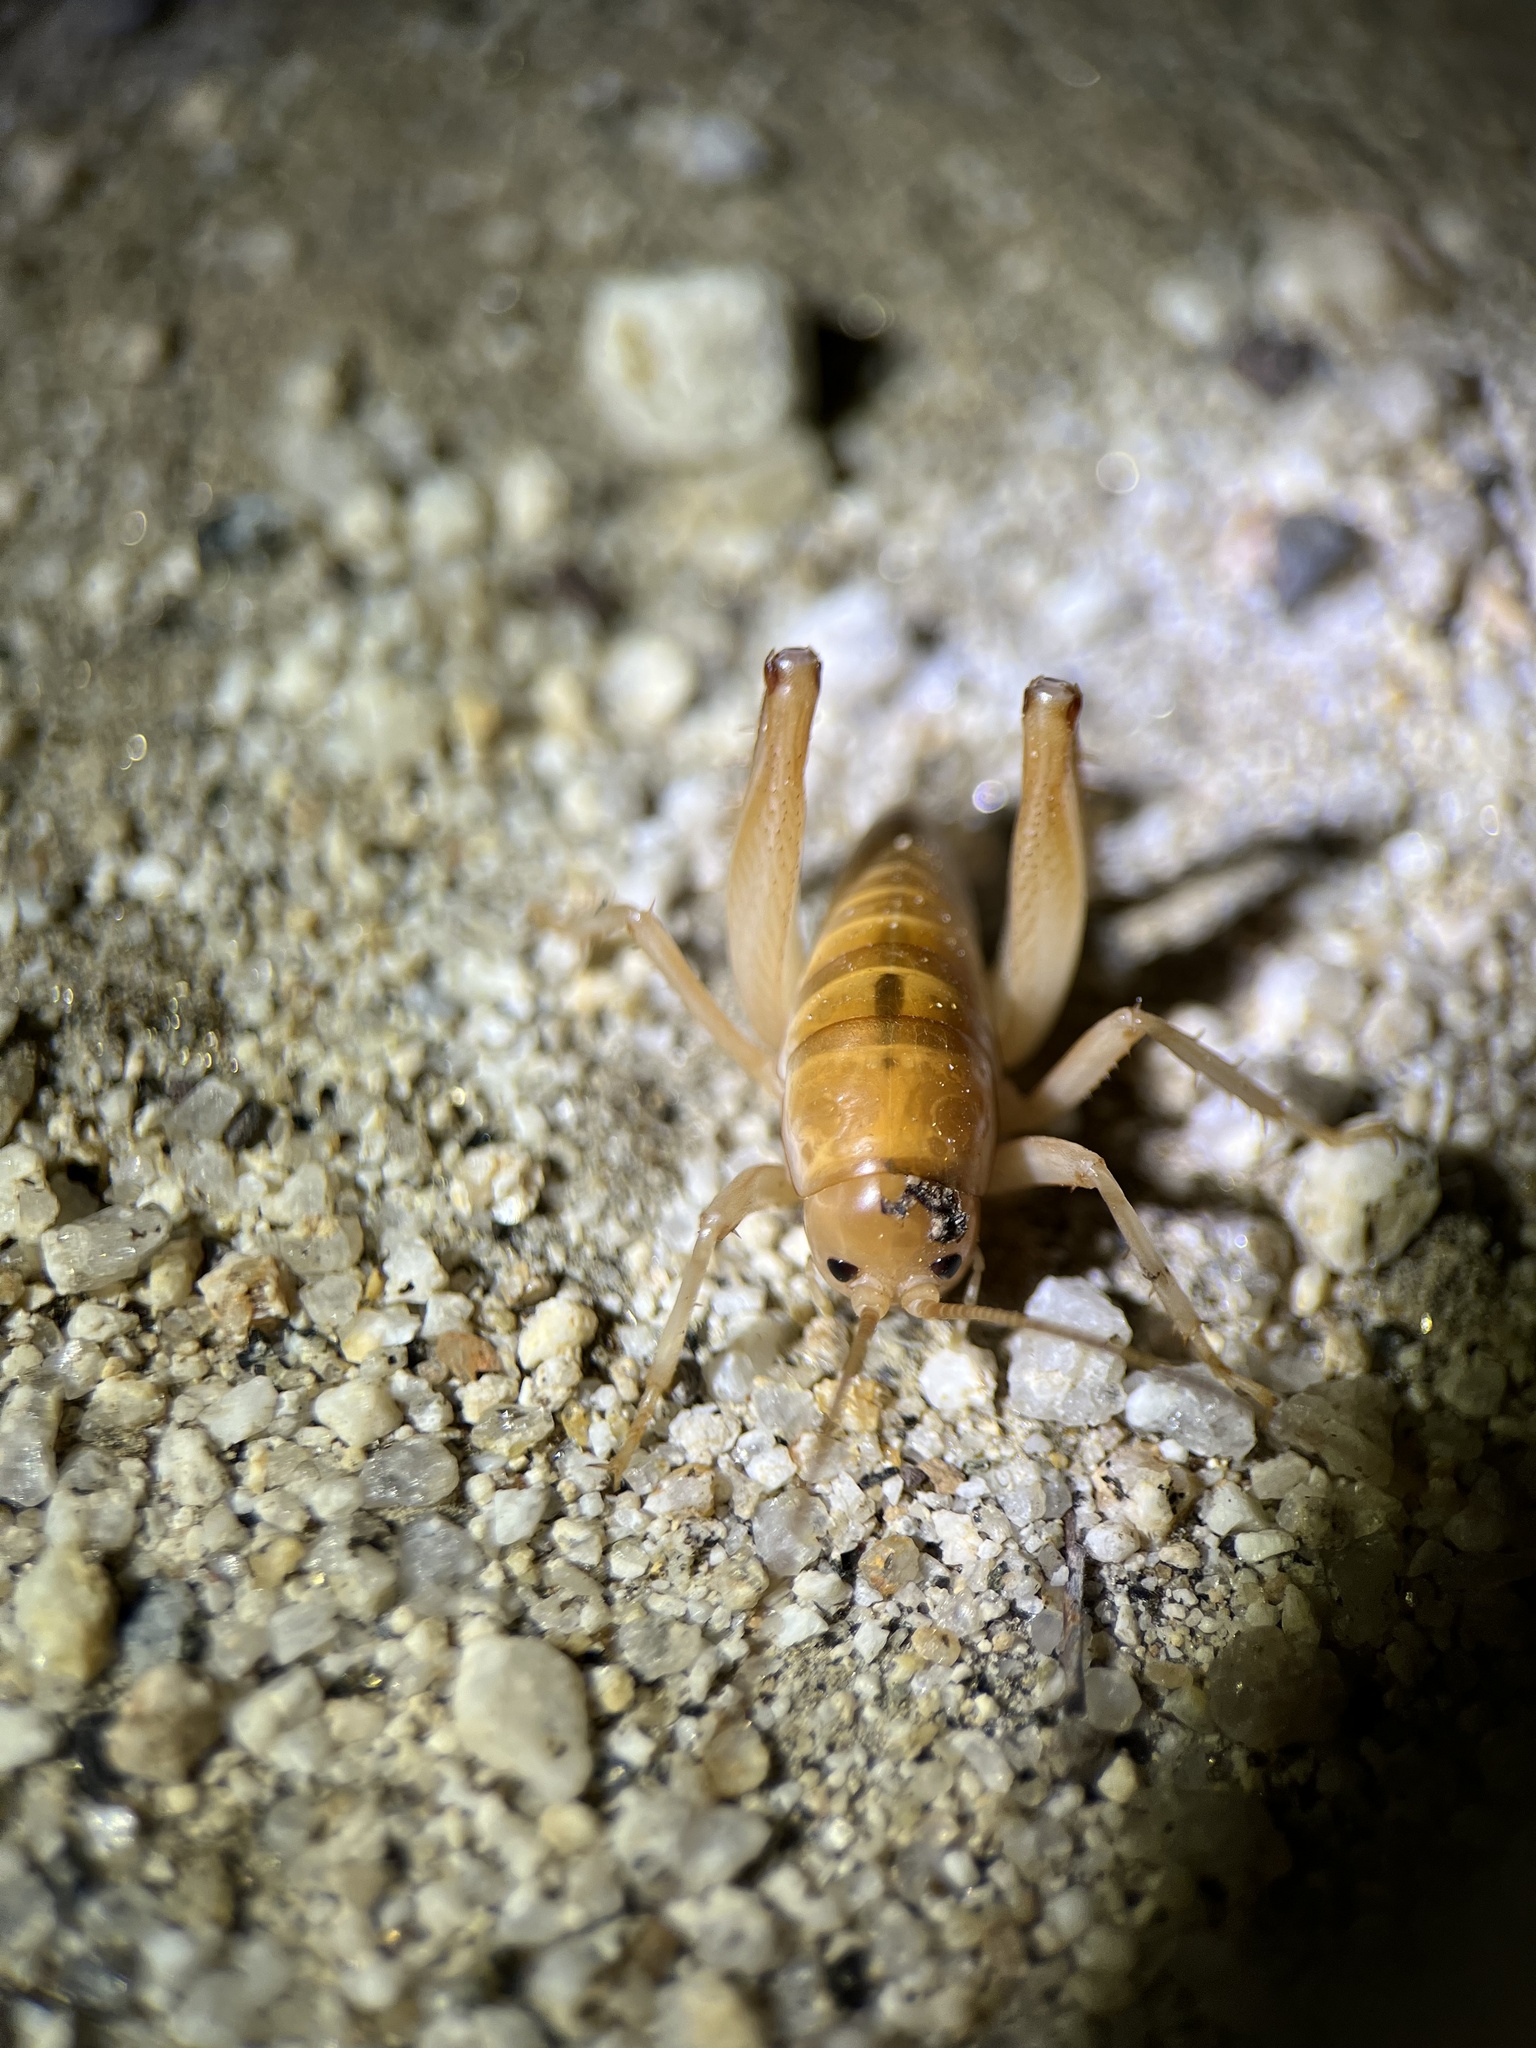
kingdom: Animalia
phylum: Arthropoda
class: Insecta
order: Orthoptera
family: Rhaphidophoridae
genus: Ceuthophilus
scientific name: Ceuthophilus hesperus
